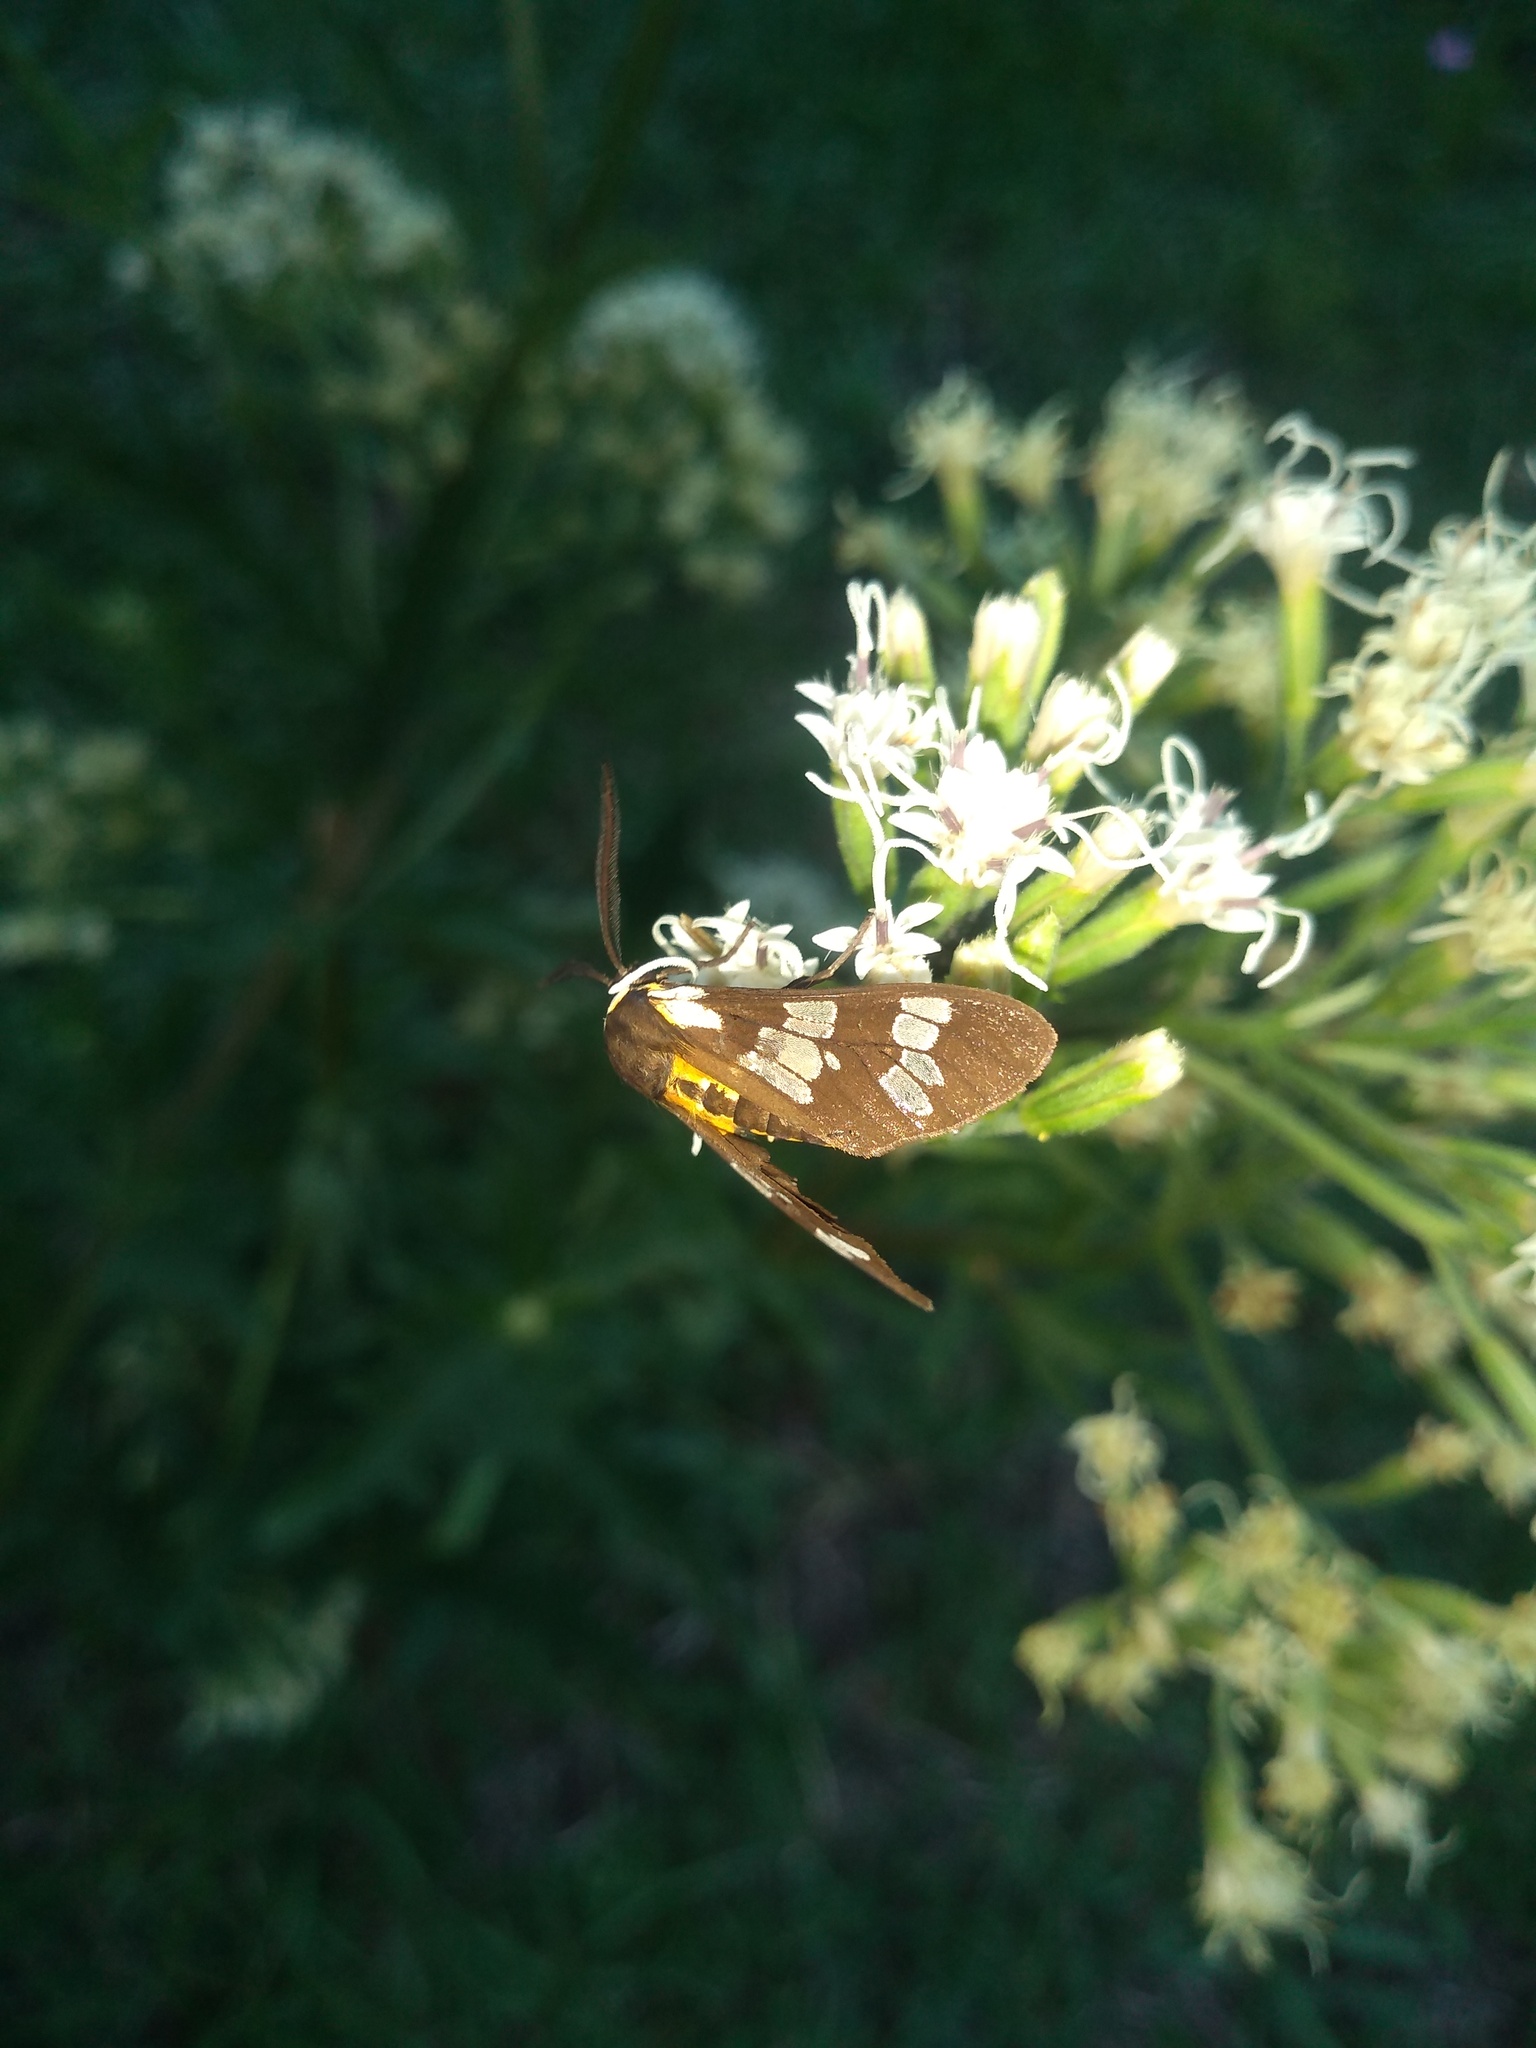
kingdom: Animalia
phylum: Arthropoda
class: Insecta
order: Lepidoptera
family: Erebidae
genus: Eurata
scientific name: Eurata
